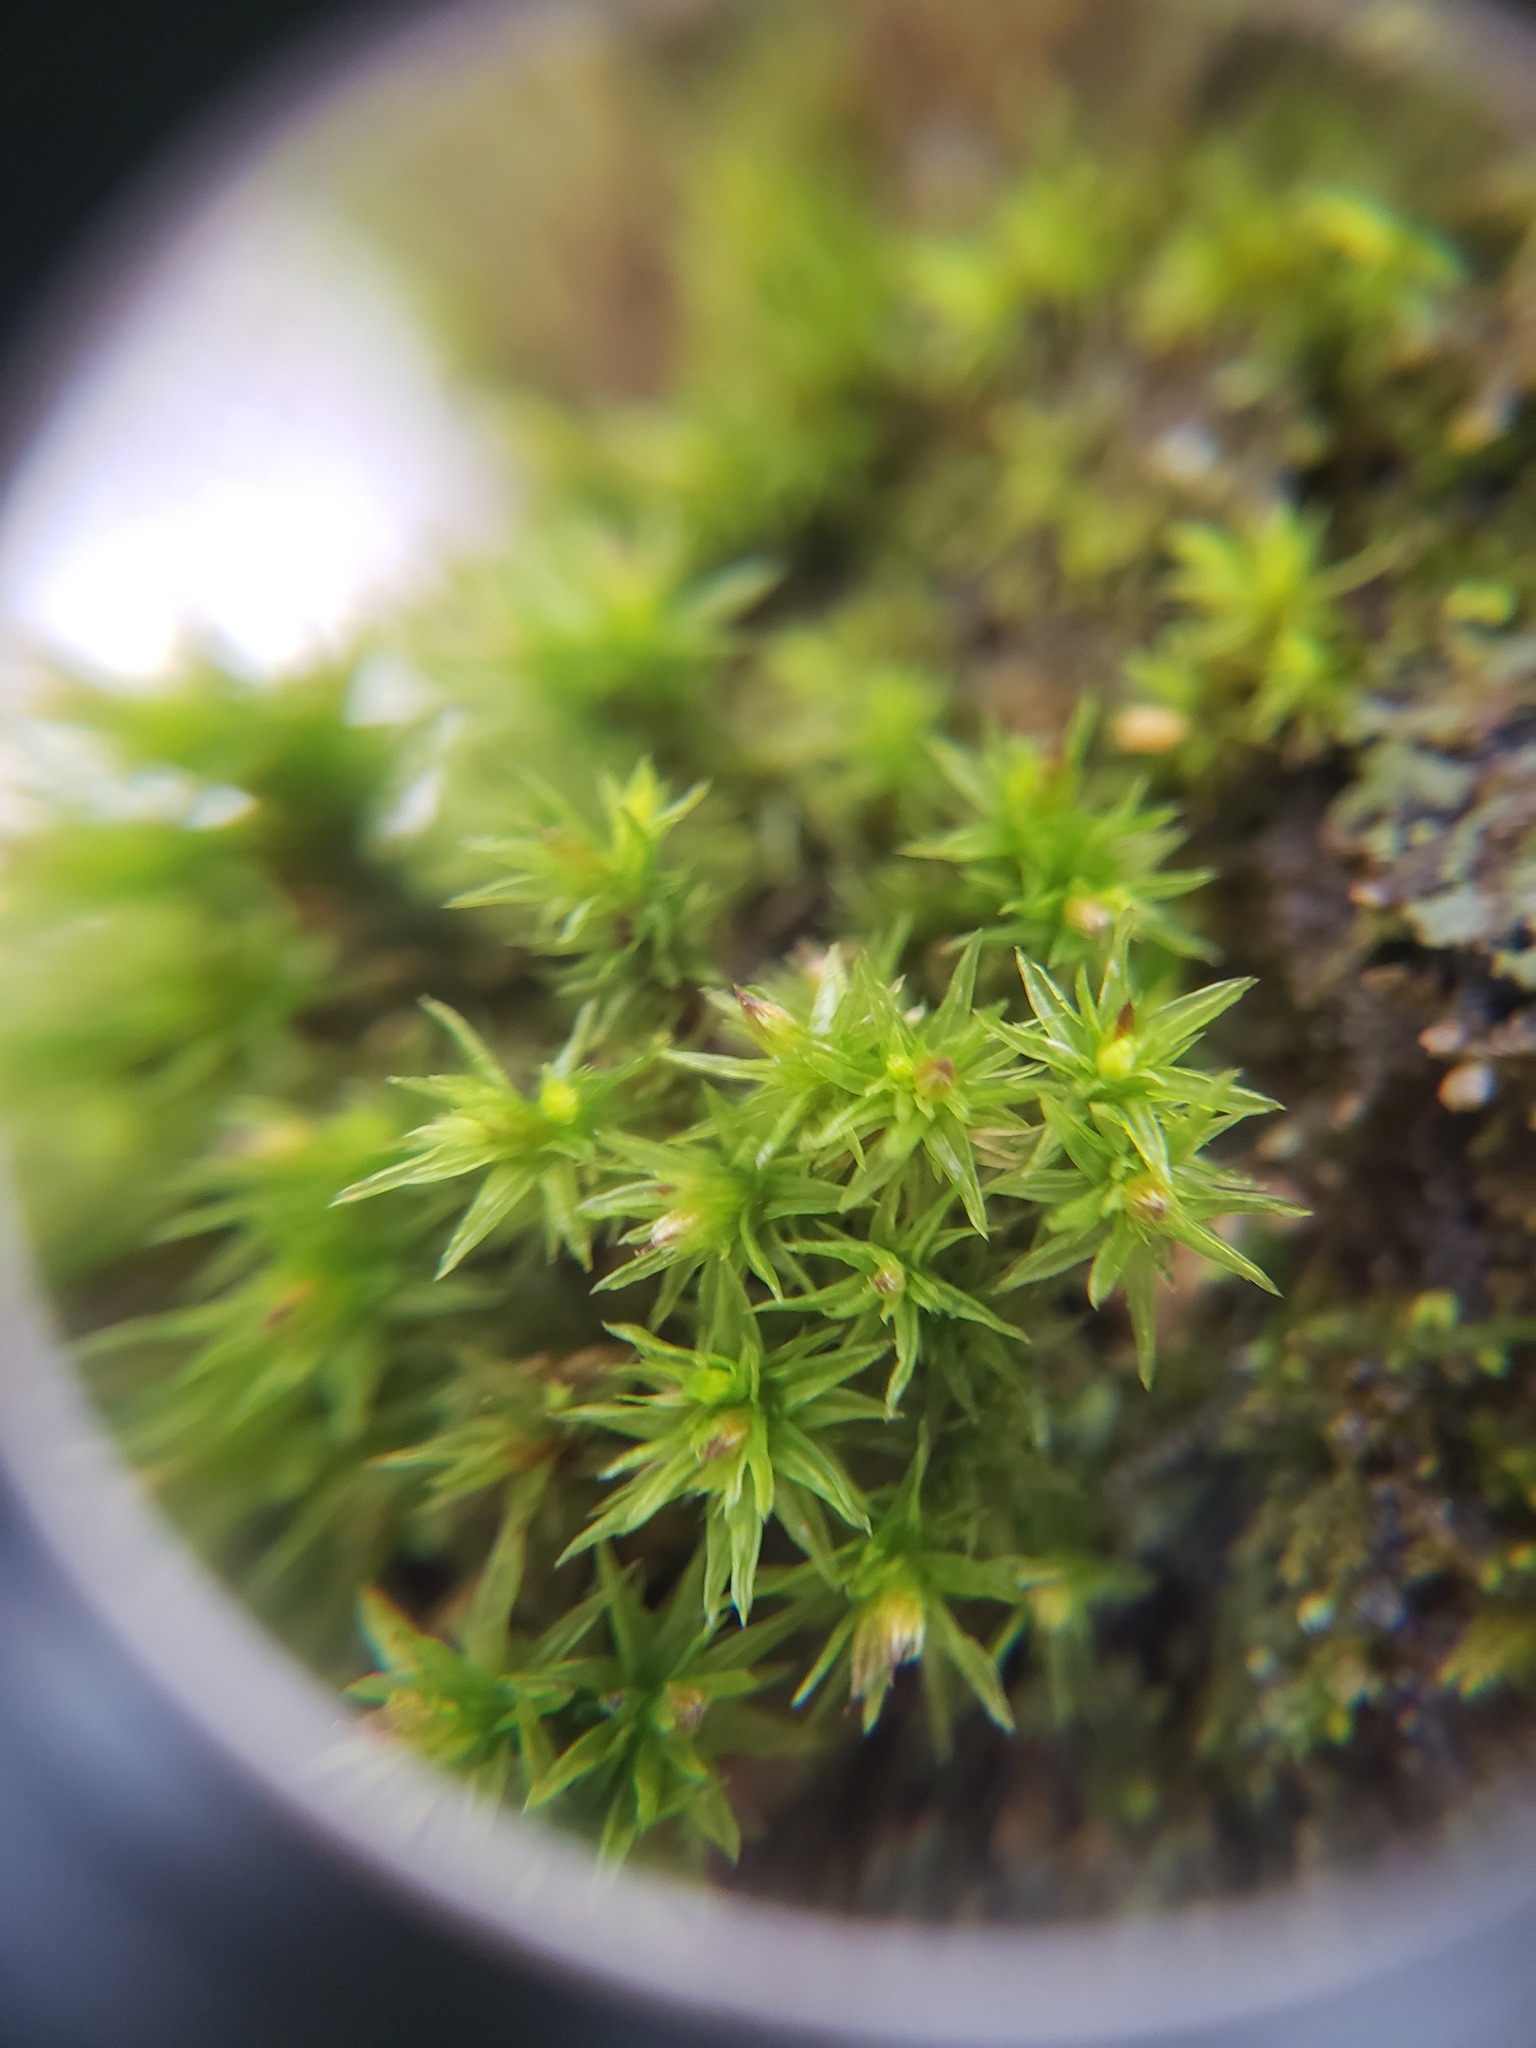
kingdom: Plantae
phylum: Bryophyta
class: Bryopsida
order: Orthotrichales
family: Orthotrichaceae
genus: Orthotrichum
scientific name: Orthotrichum stellatum
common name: Starlike bristle moss
